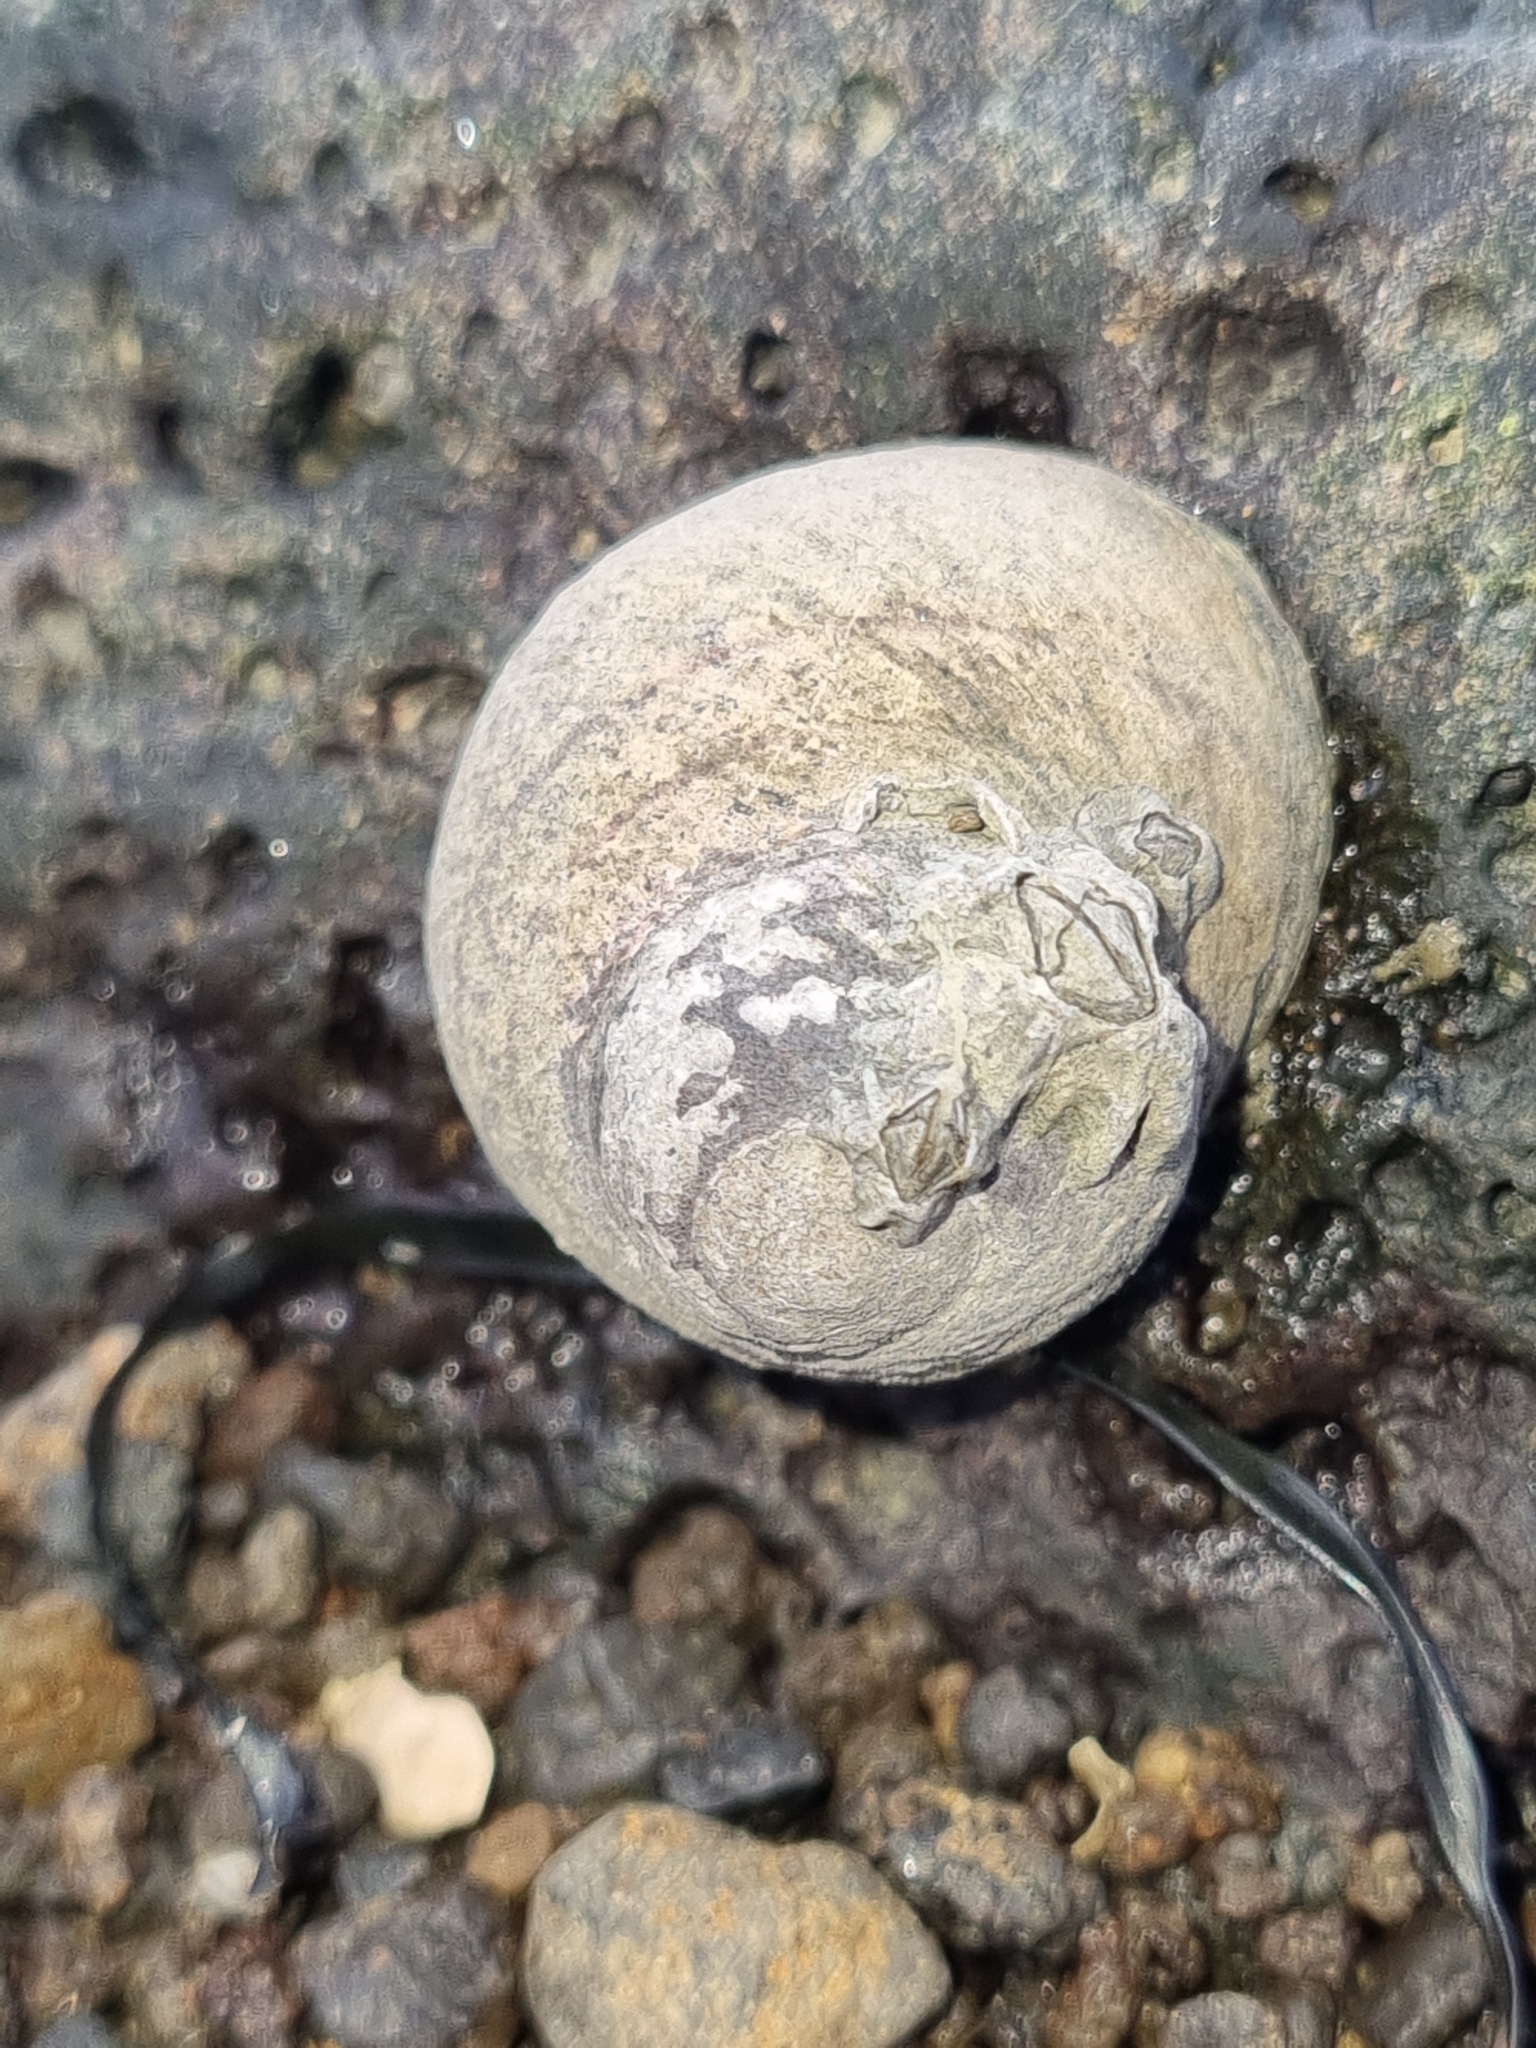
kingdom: Animalia
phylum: Mollusca
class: Gastropoda
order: Trochida
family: Trochidae
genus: Diloma
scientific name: Diloma aethiops
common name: Scorched monodont
